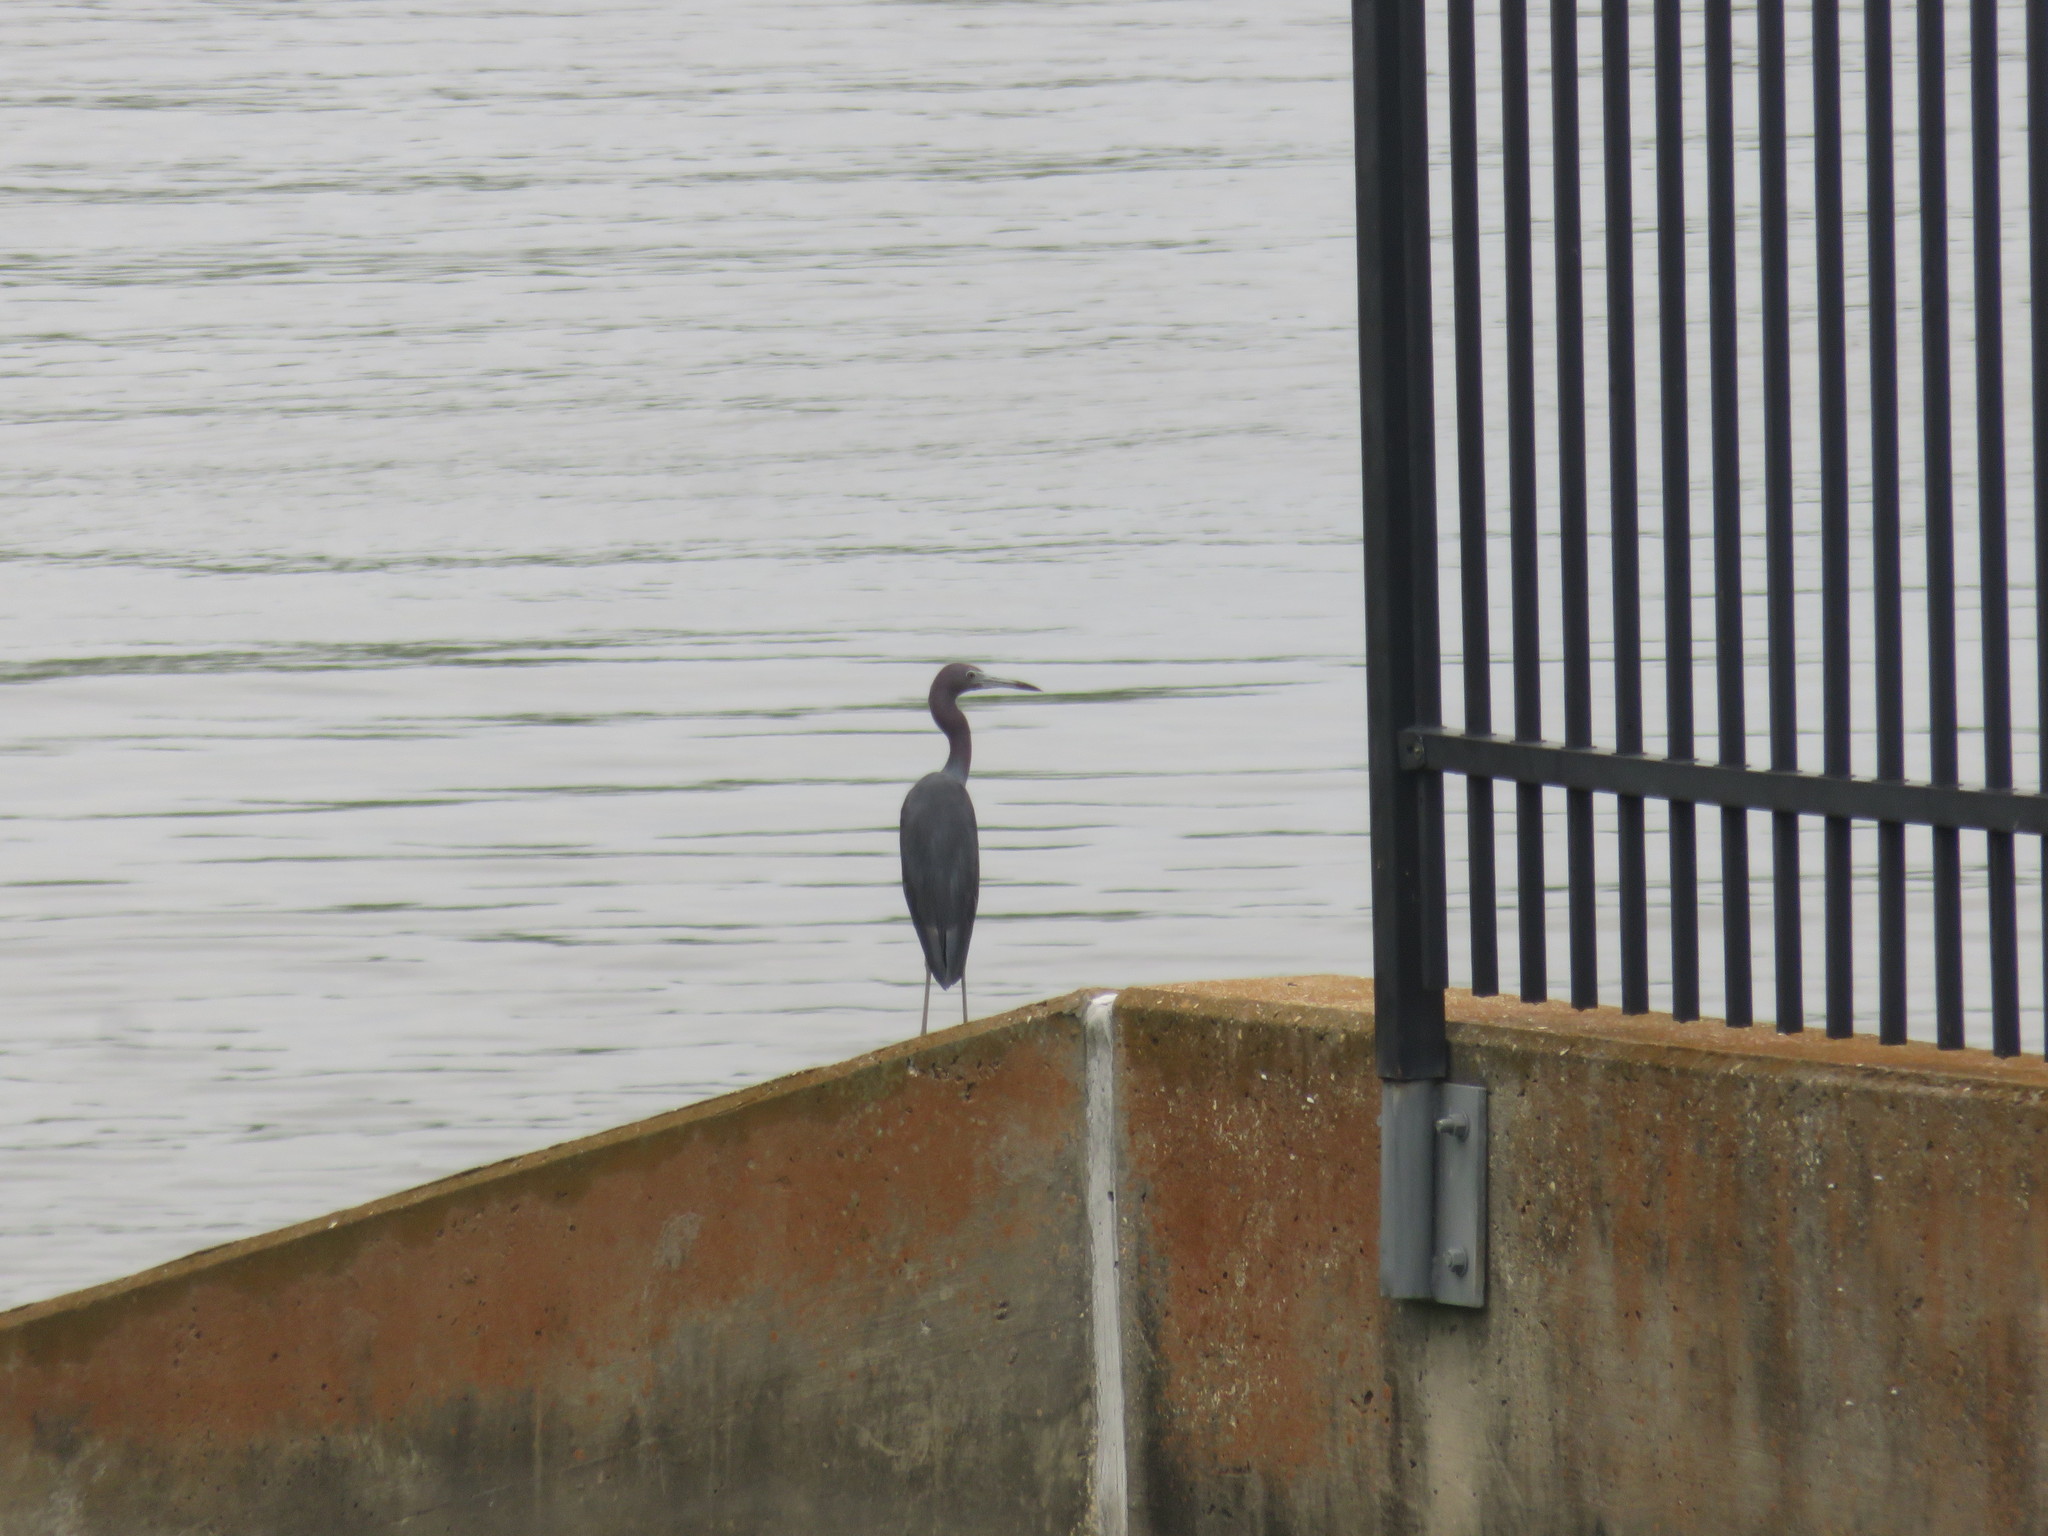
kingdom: Animalia
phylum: Chordata
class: Aves
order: Pelecaniformes
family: Ardeidae
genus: Egretta
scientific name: Egretta caerulea
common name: Little blue heron
